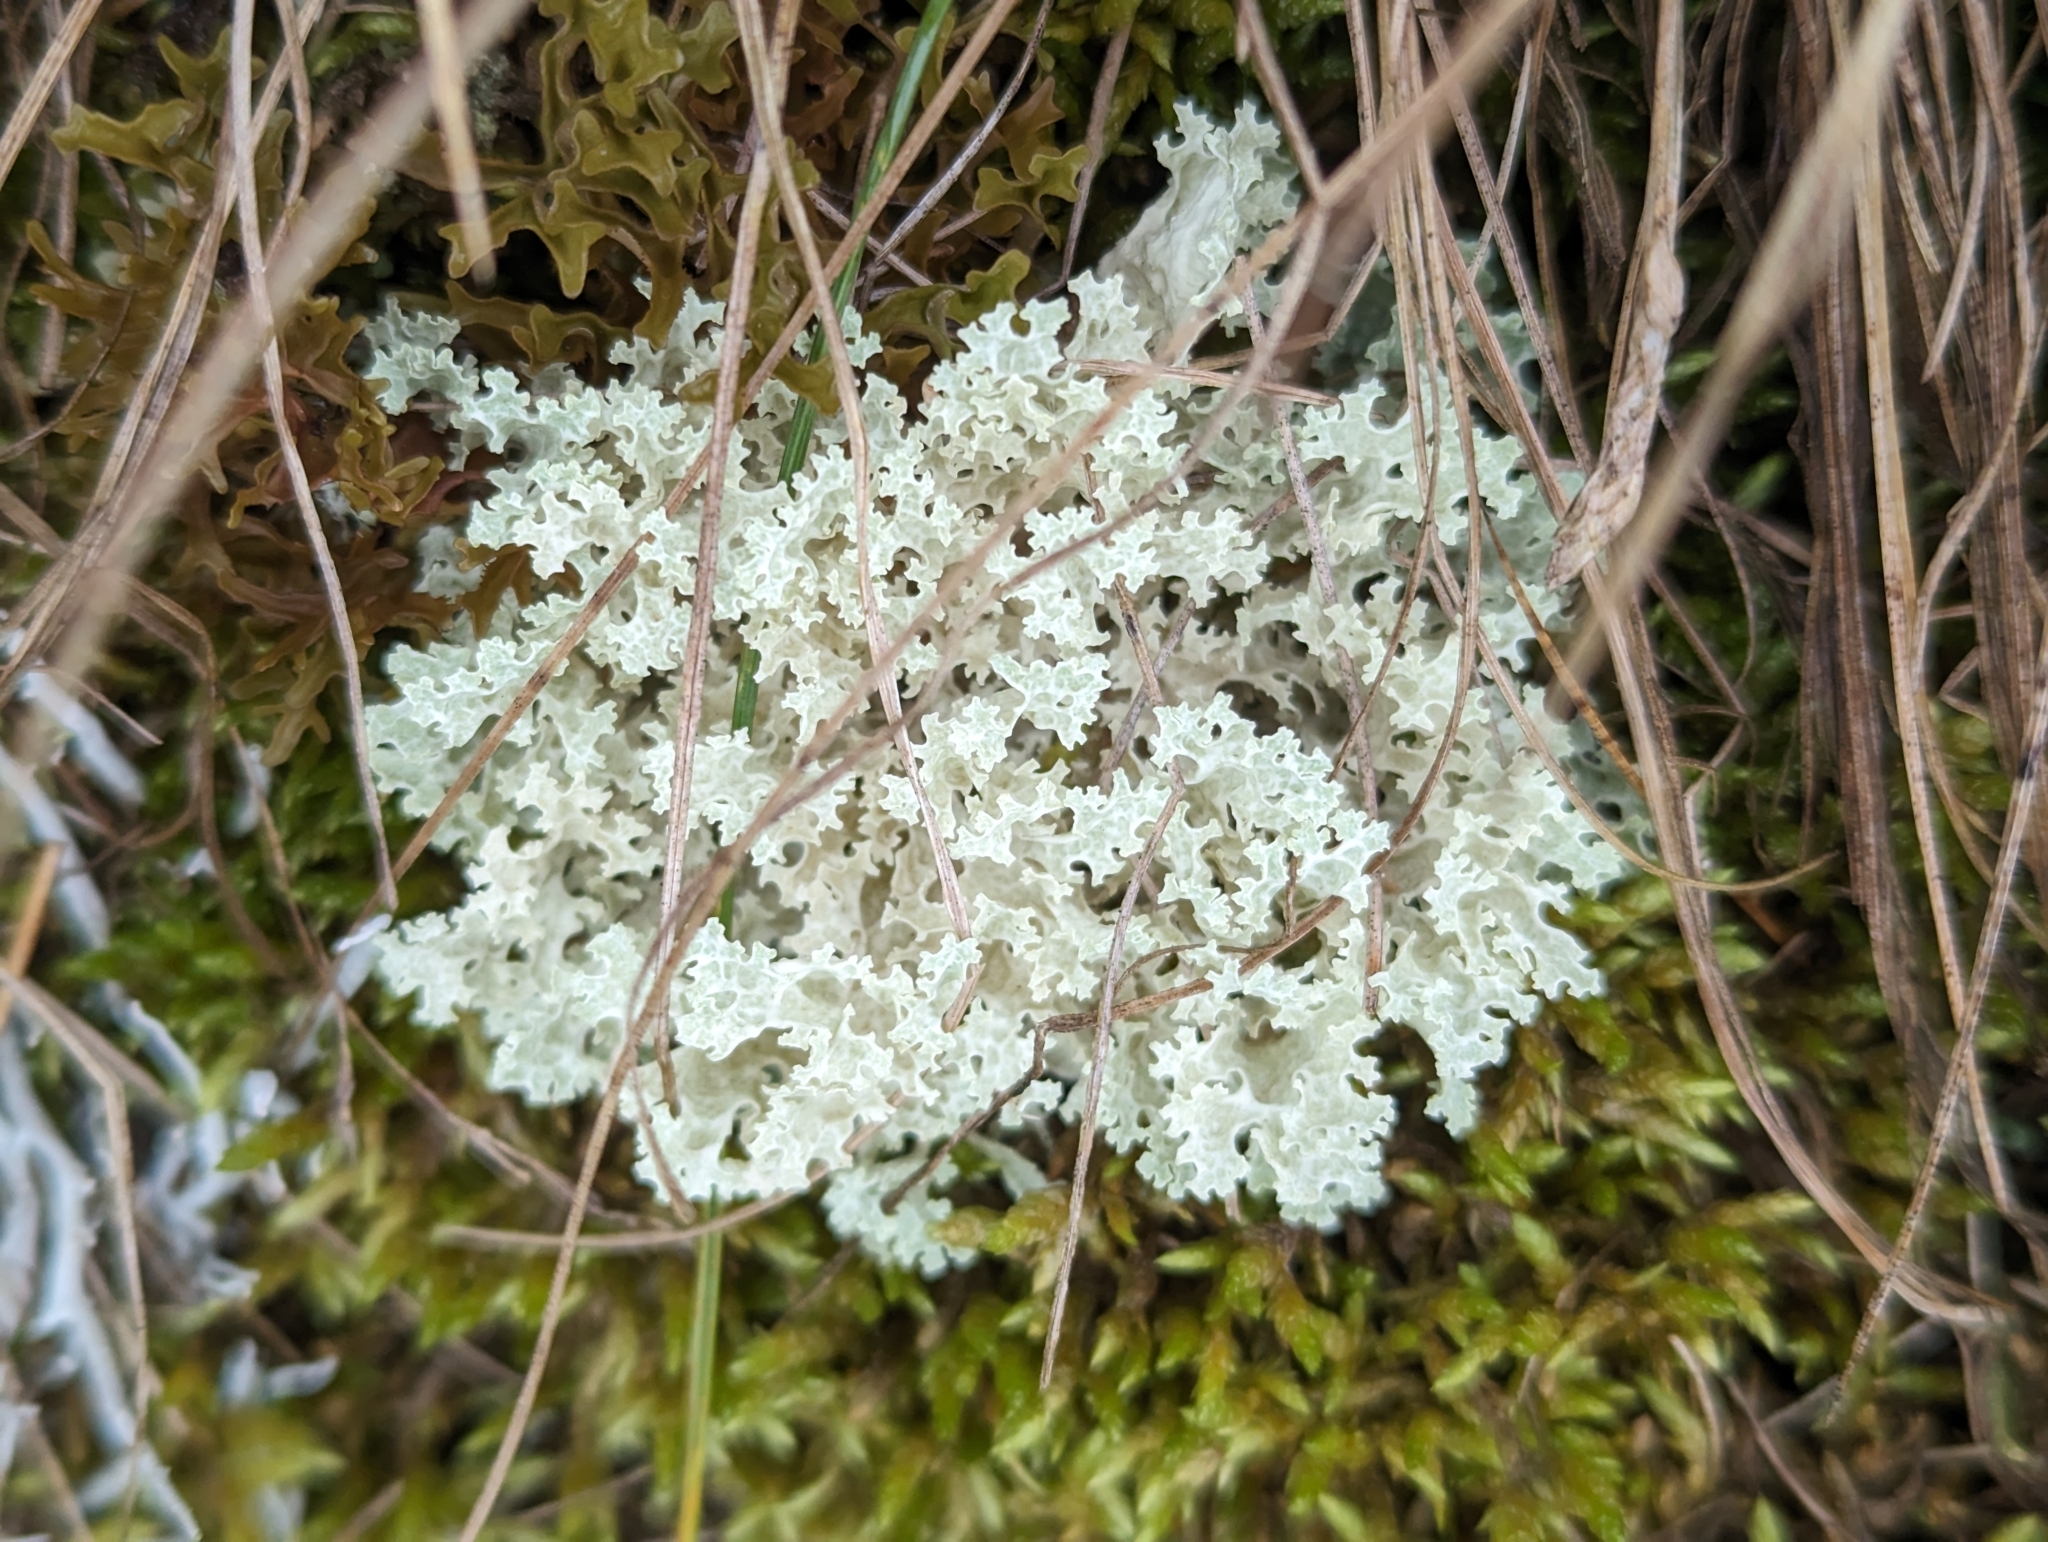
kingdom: Fungi
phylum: Ascomycota
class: Lecanoromycetes
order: Lecanorales
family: Parmeliaceae
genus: Nephromopsis
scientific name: Nephromopsis nivalis
